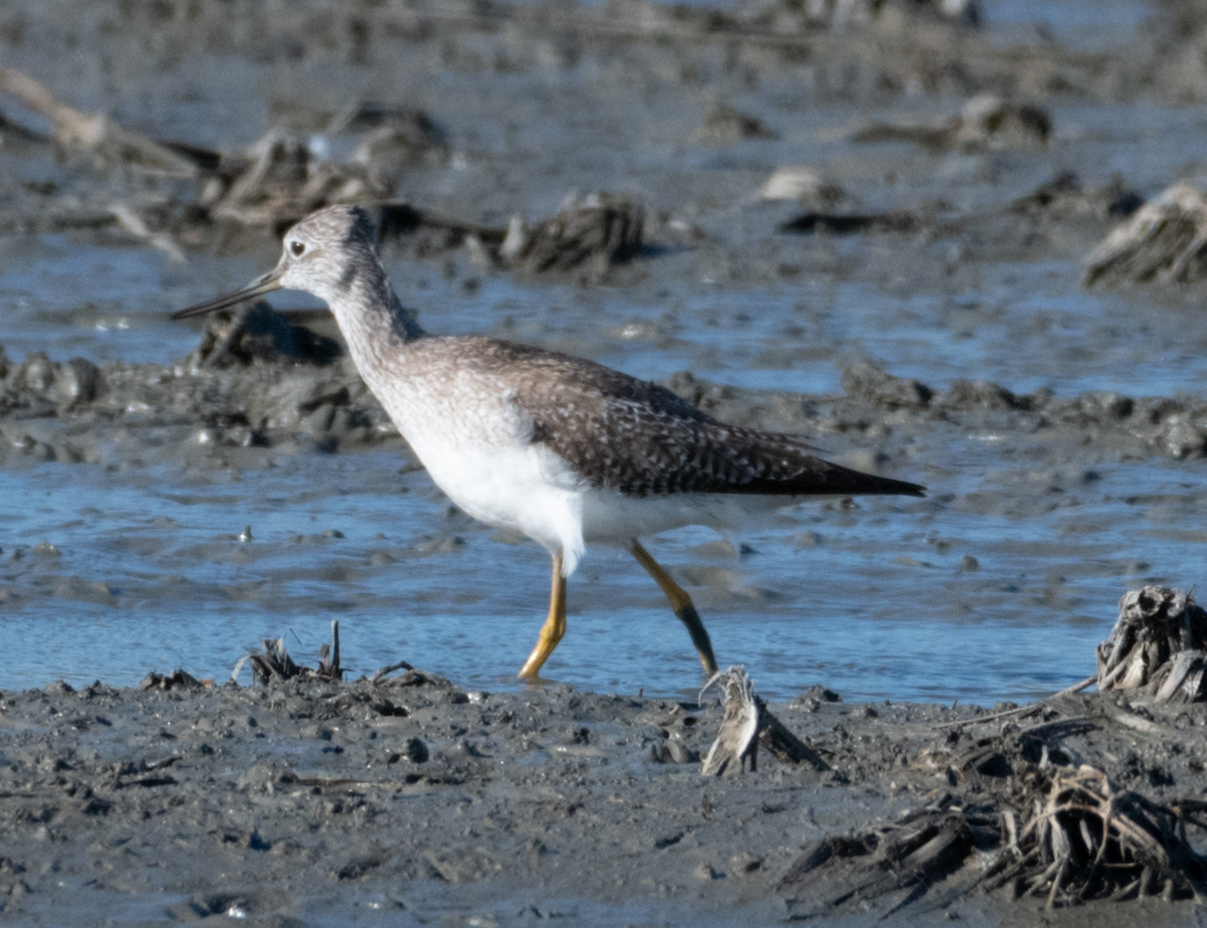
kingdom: Animalia
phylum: Chordata
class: Aves
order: Charadriiformes
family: Scolopacidae
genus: Tringa
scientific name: Tringa melanoleuca
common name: Greater yellowlegs
